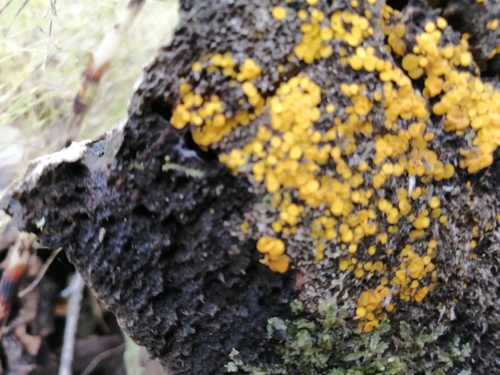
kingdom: Fungi
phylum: Ascomycota
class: Leotiomycetes
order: Helotiales
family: Pezizellaceae
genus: Calycina
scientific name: Calycina citrina
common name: Yellow fairy cups
